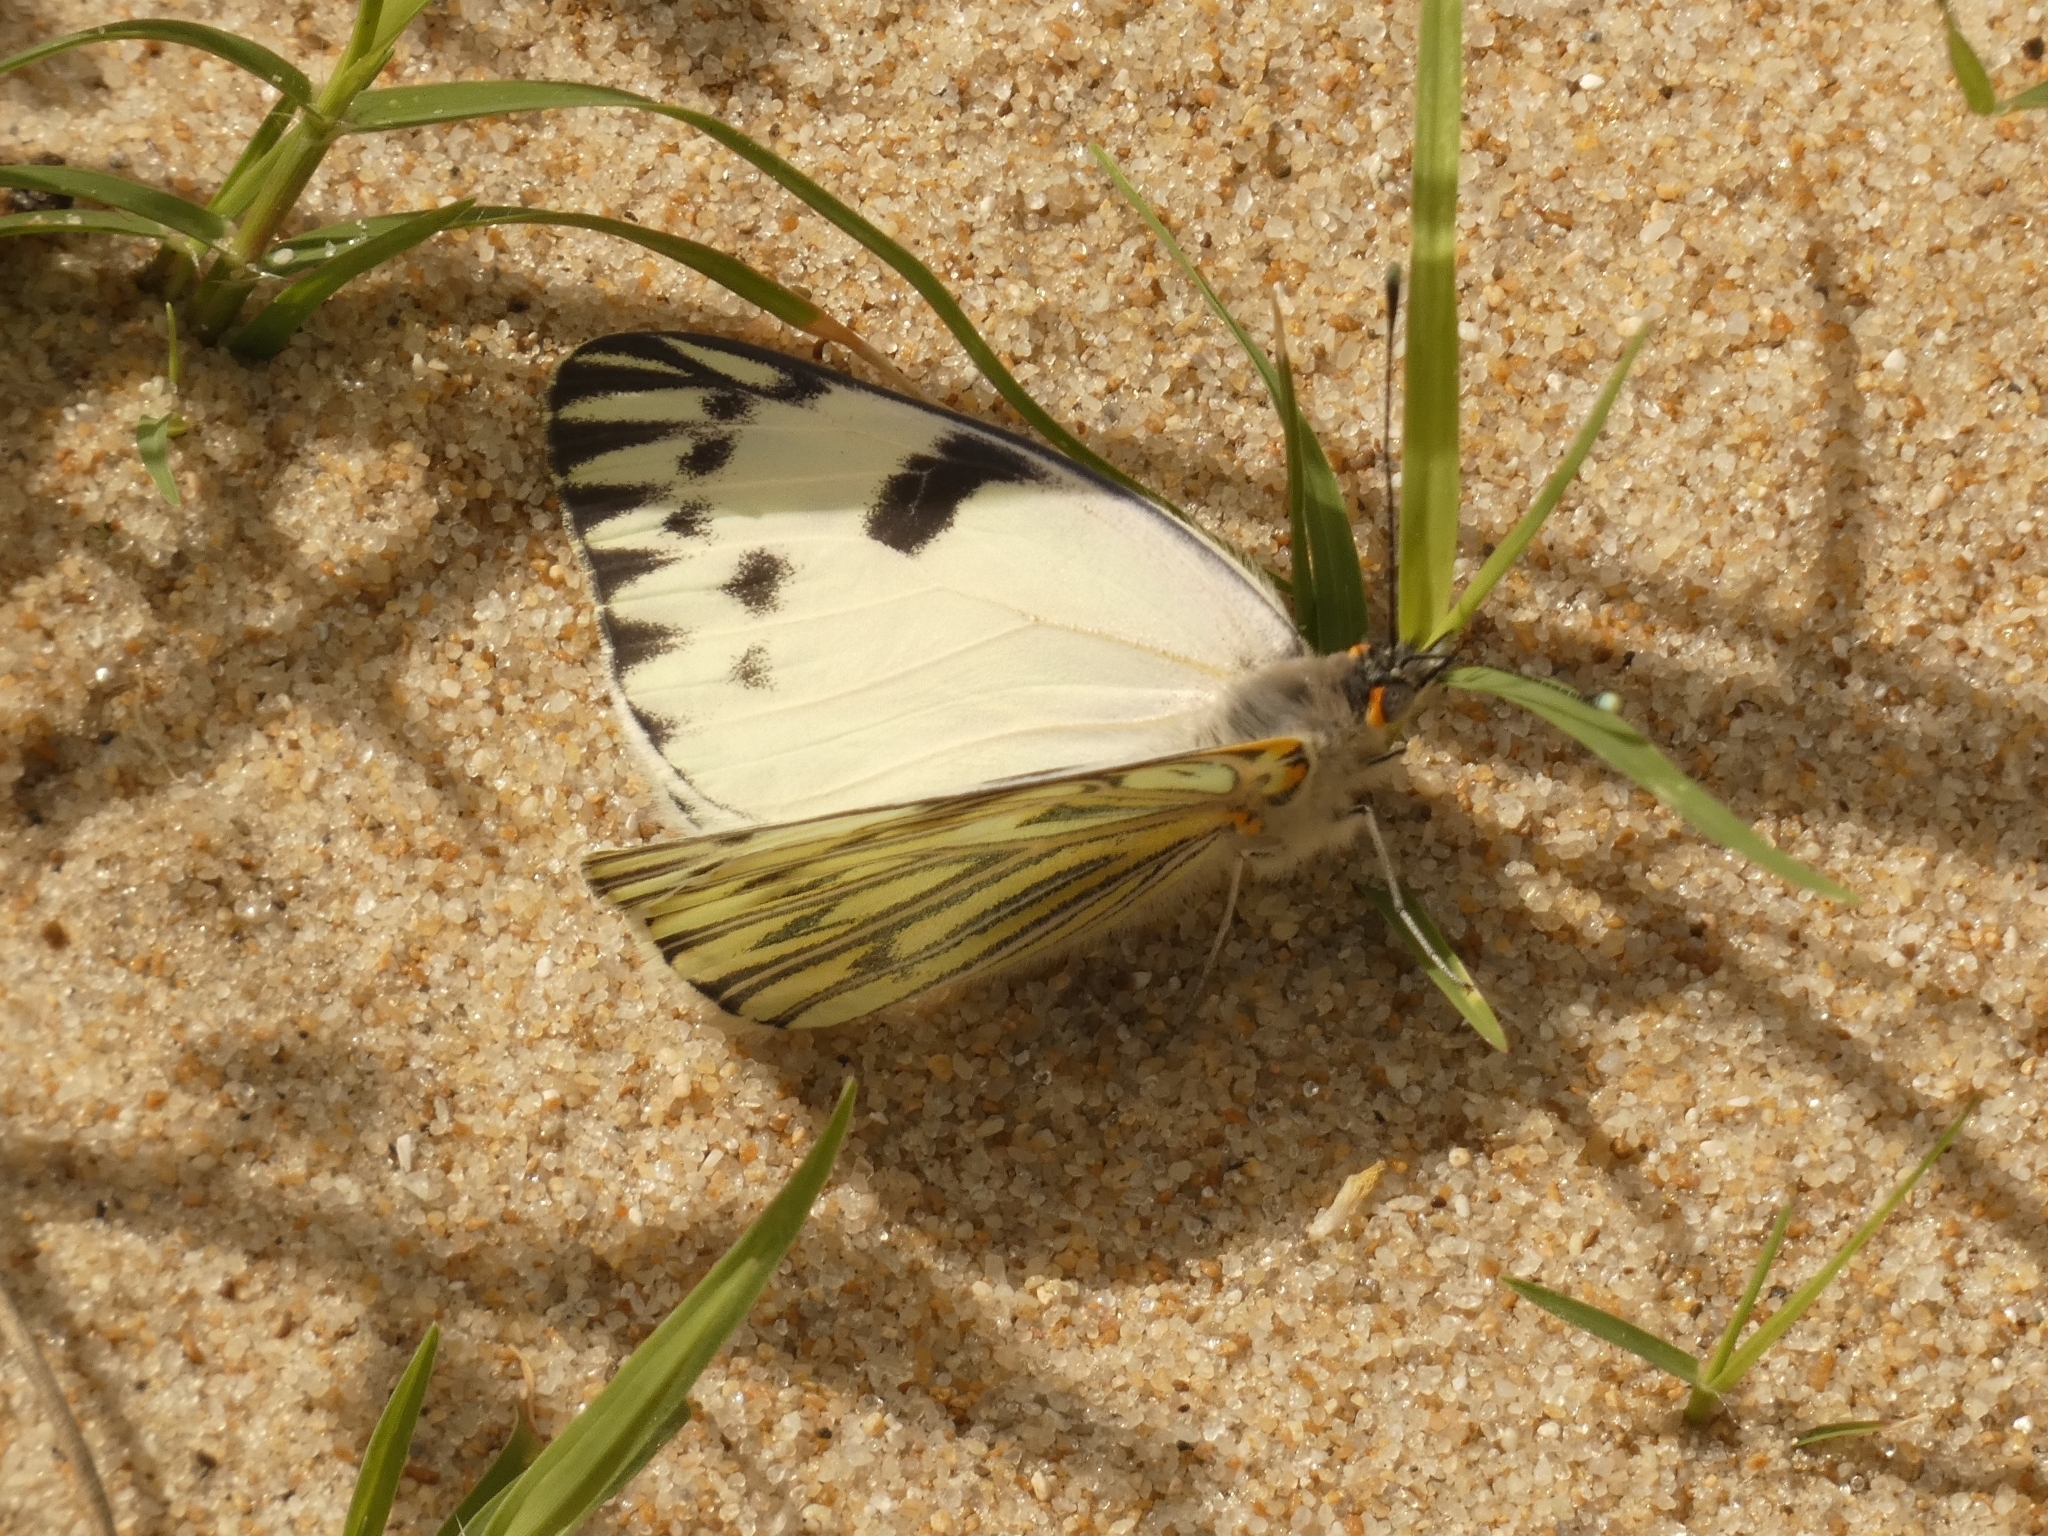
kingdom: Animalia
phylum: Arthropoda
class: Insecta
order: Lepidoptera
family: Pieridae
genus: Tatochila
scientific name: Tatochila autodice
